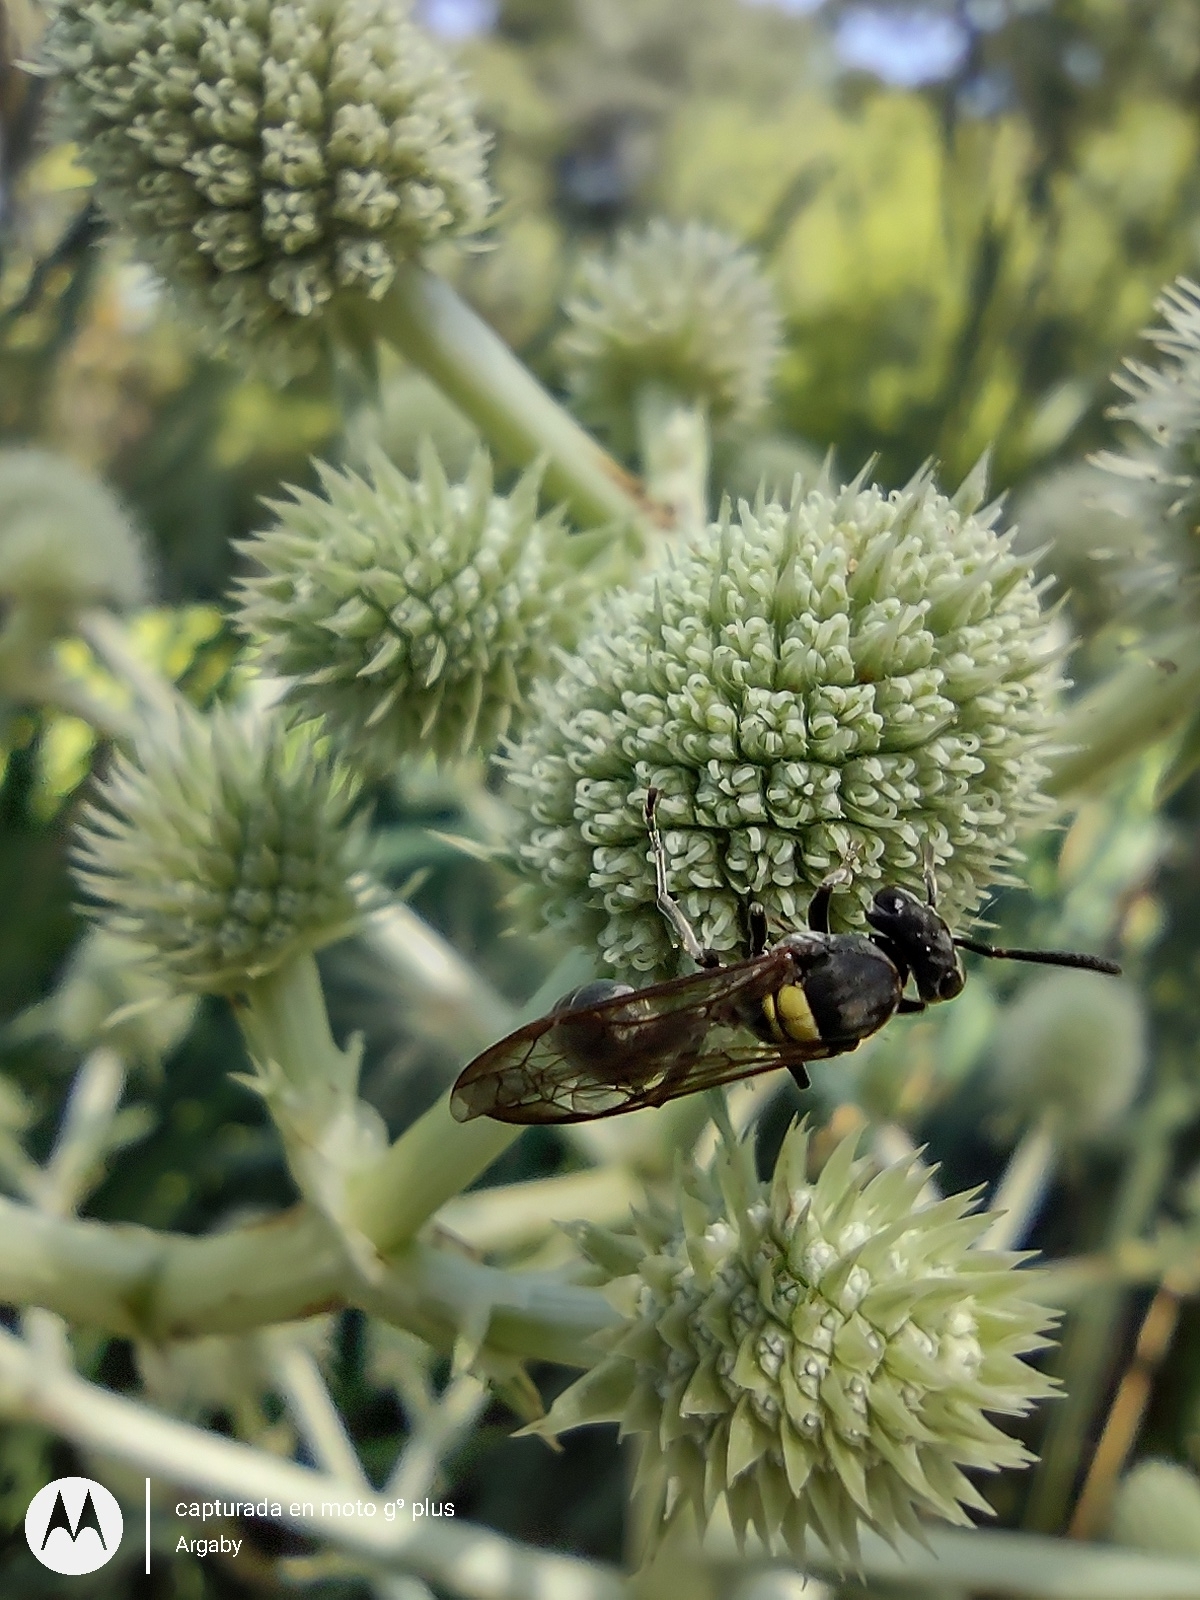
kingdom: Animalia
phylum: Arthropoda
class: Insecta
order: Hymenoptera
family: Eumenidae
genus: Polybia
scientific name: Polybia scutellaris
